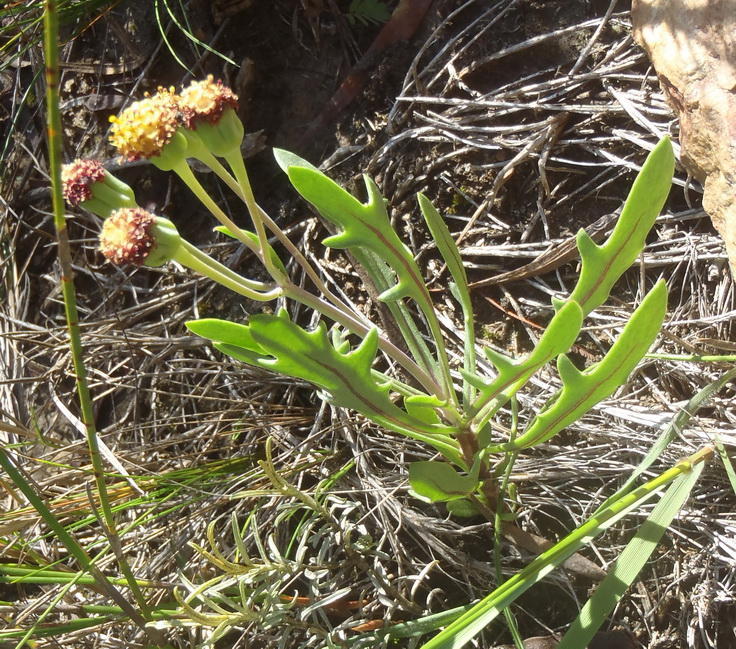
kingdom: Plantae
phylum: Tracheophyta
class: Magnoliopsida
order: Asterales
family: Asteraceae
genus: Othonna
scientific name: Othonna retrofracta
